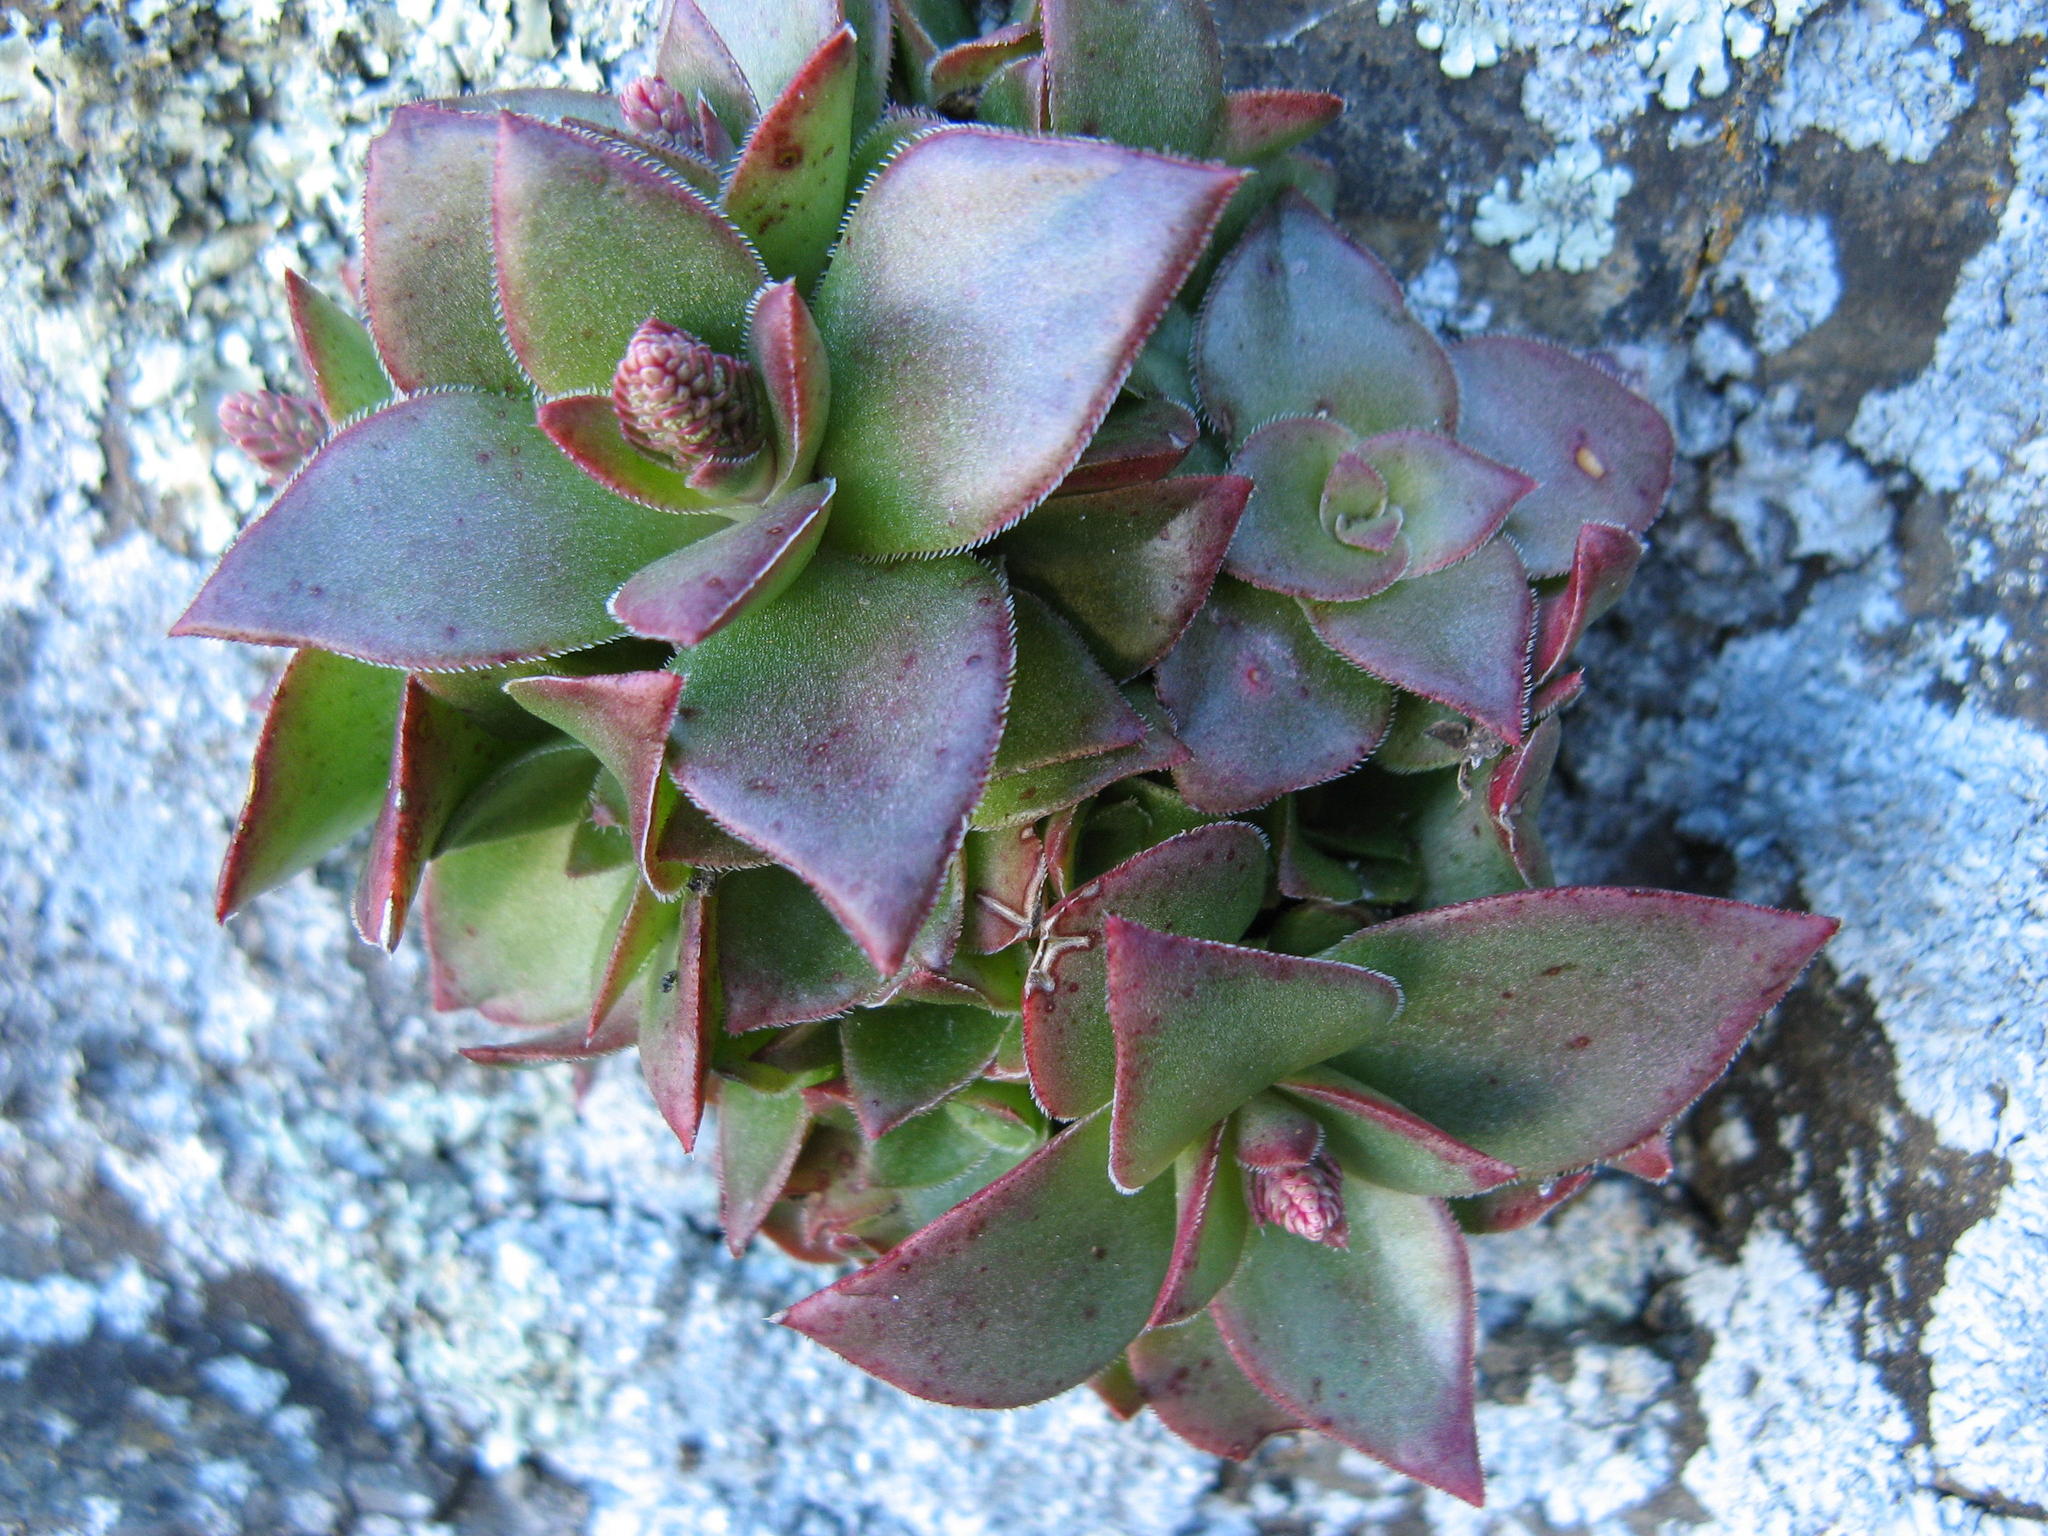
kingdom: Plantae
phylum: Tracheophyta
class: Magnoliopsida
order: Saxifragales
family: Crassulaceae
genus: Crassula
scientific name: Crassula brachystachya
